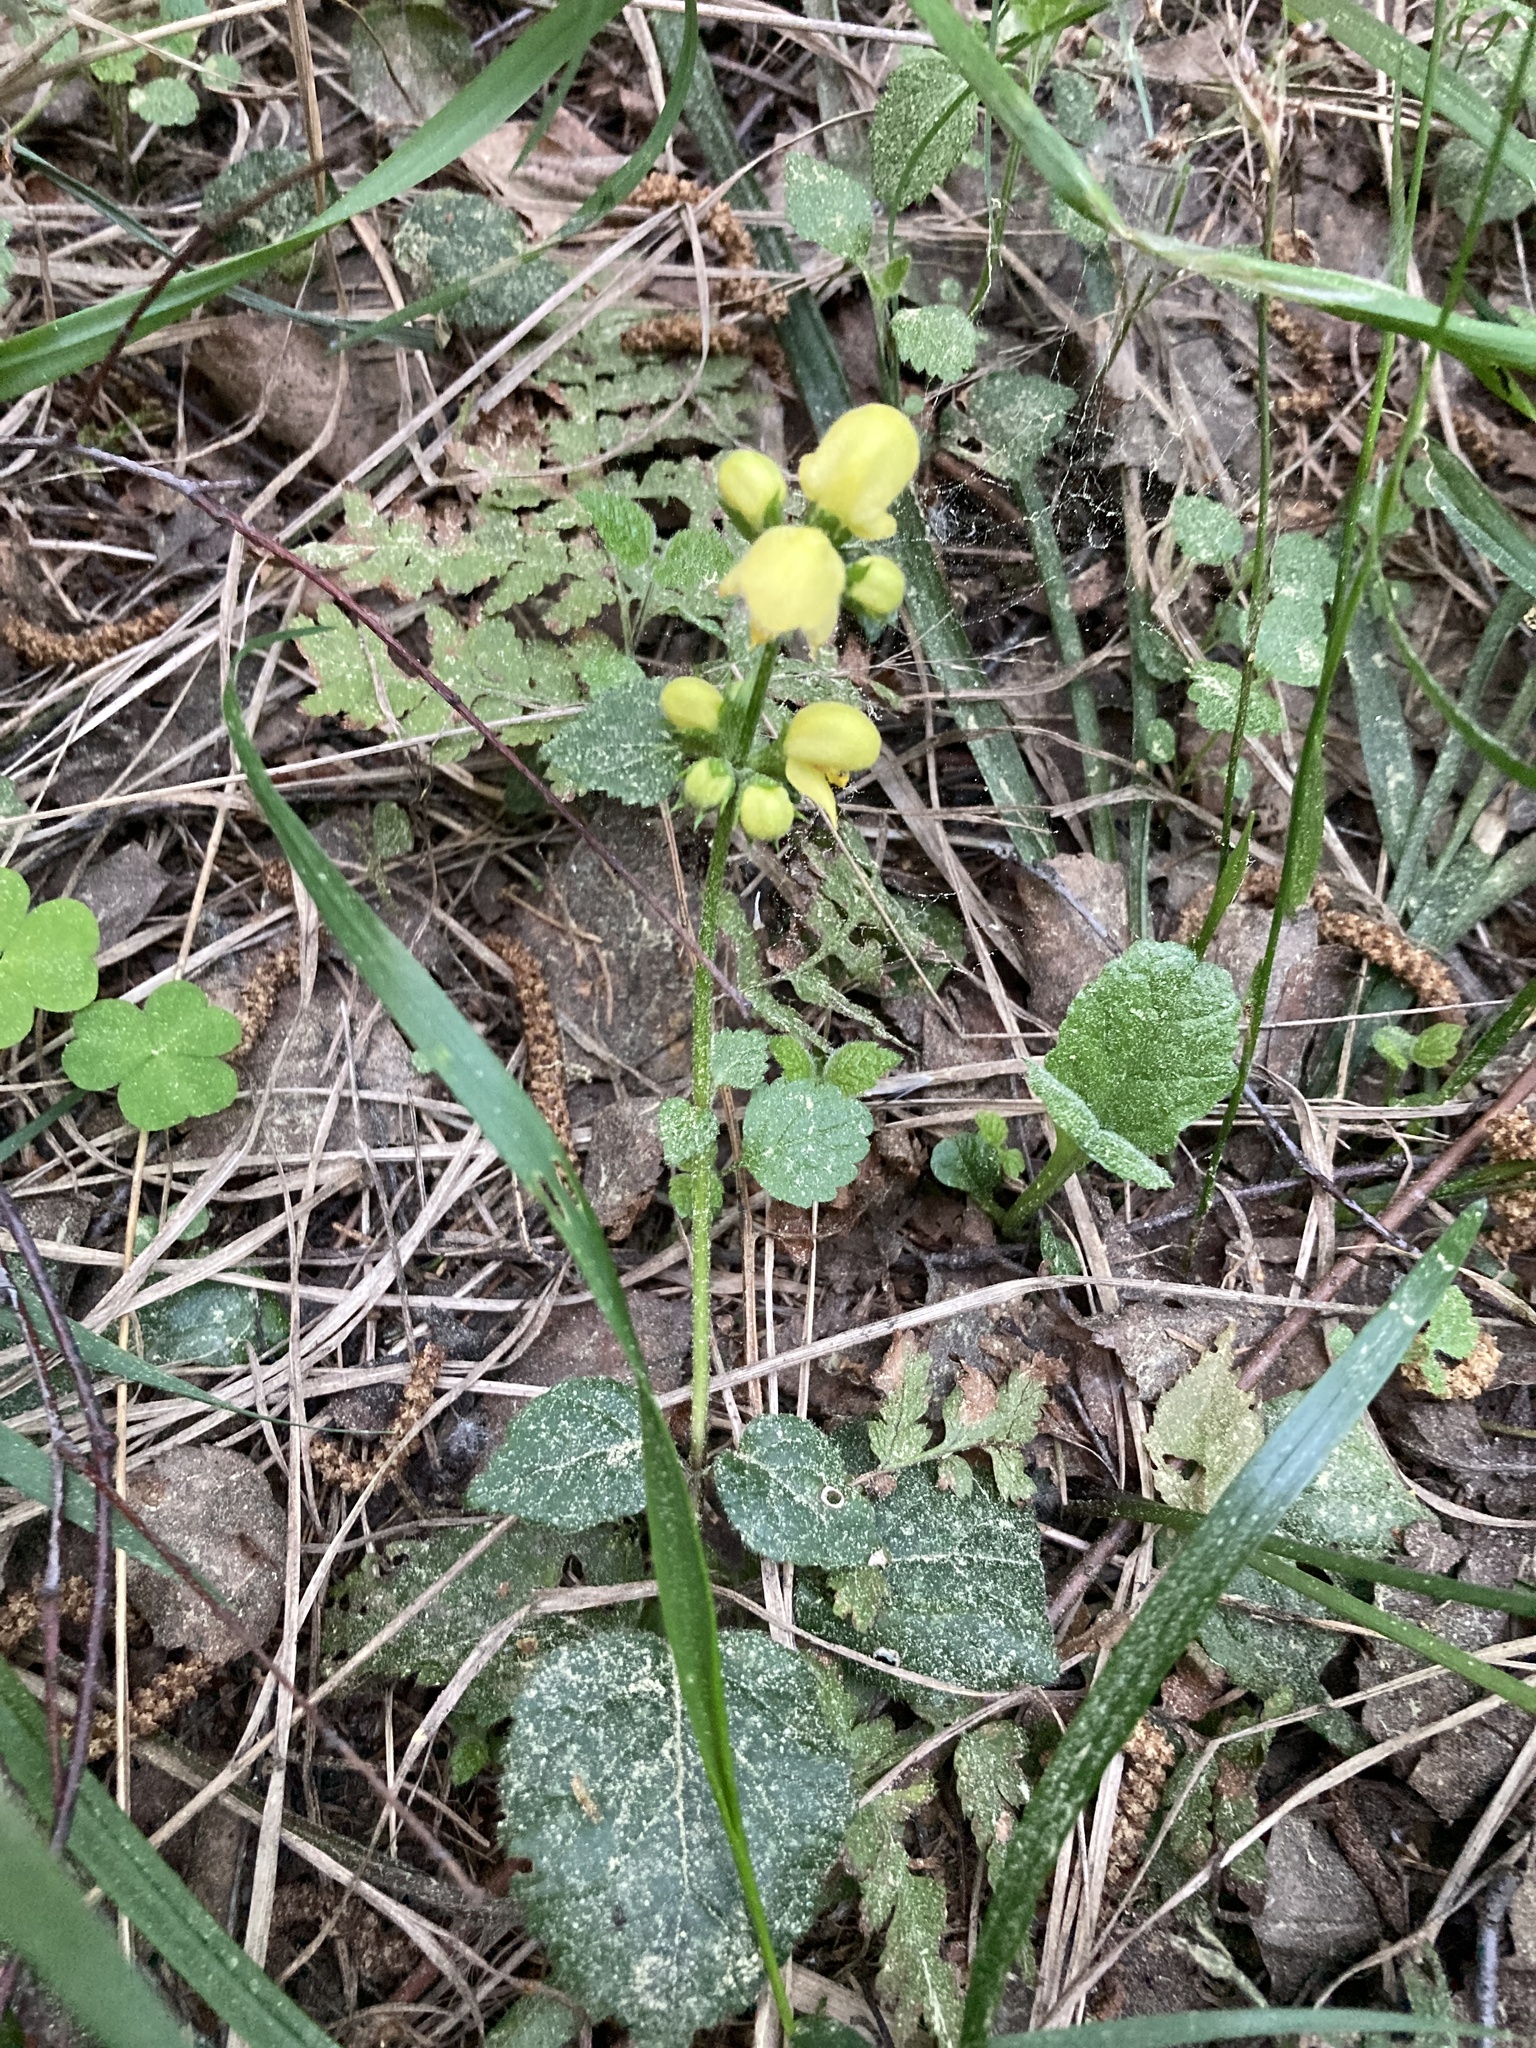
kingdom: Plantae
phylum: Tracheophyta
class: Magnoliopsida
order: Lamiales
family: Lamiaceae
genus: Lamium
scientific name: Lamium galeobdolon
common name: Yellow archangel
